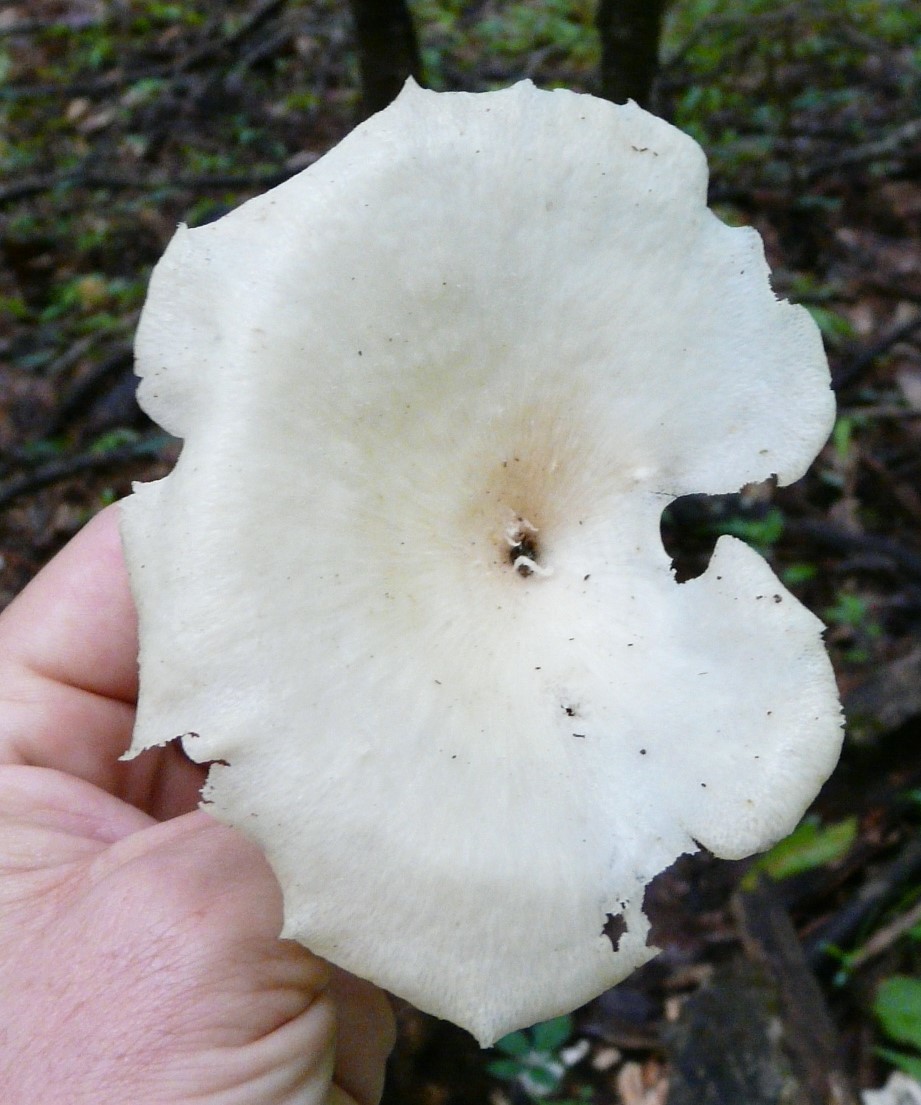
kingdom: Fungi
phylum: Basidiomycota
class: Agaricomycetes
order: Polyporales
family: Polyporaceae
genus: Favolus
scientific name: Favolus tenuiculus
